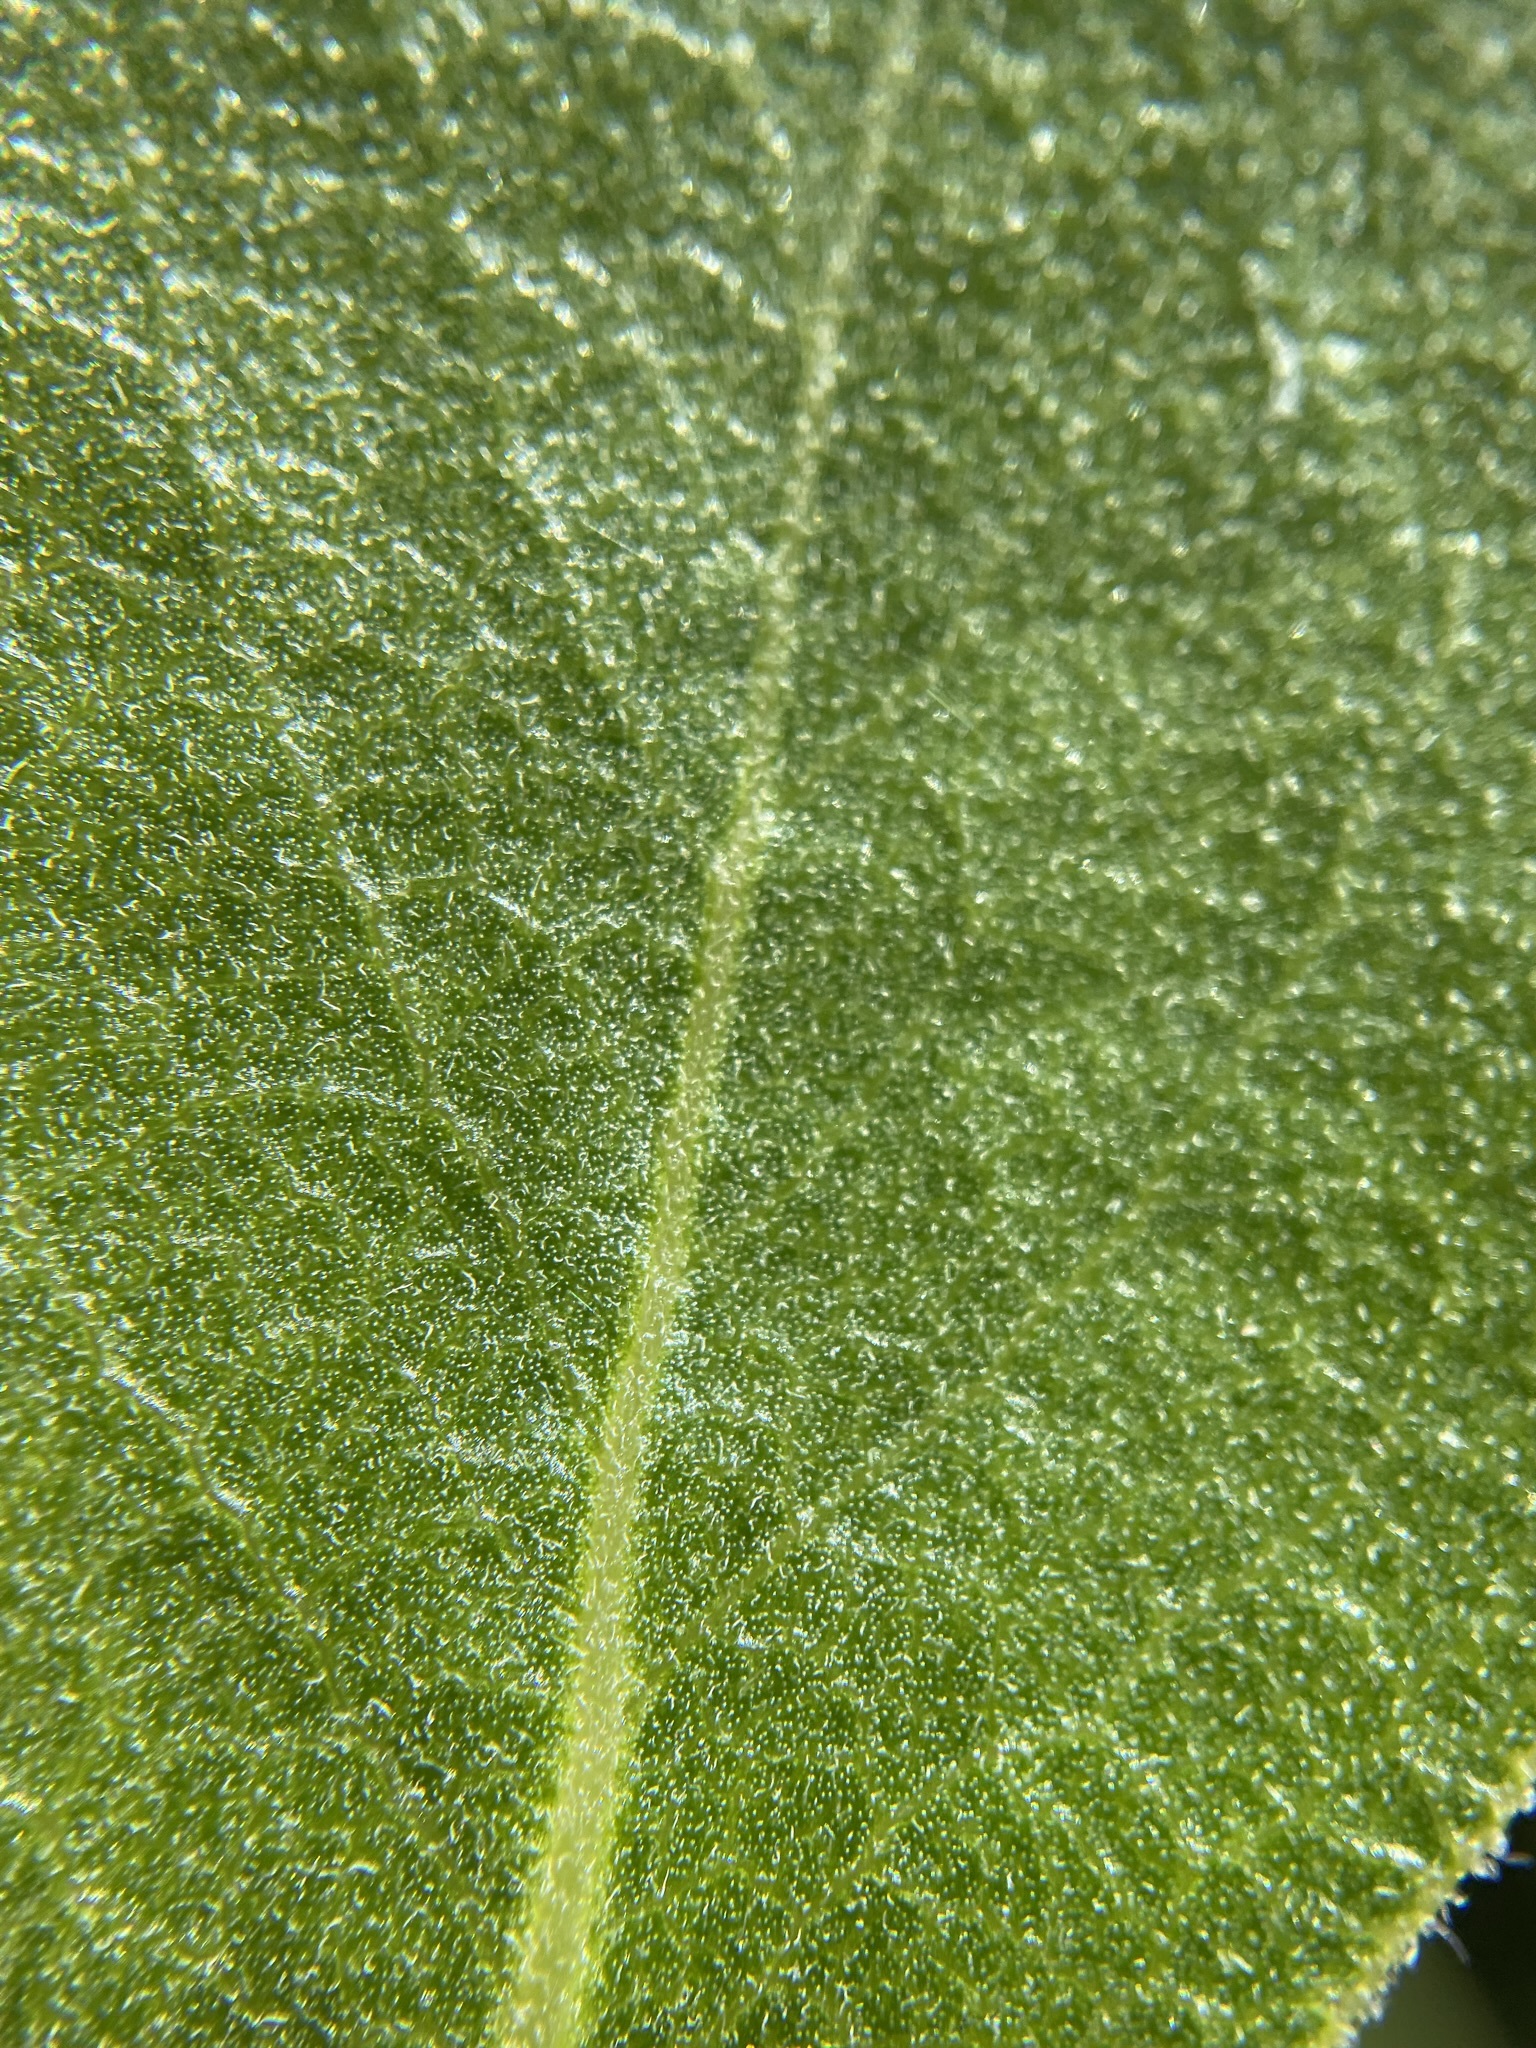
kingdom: Plantae
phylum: Tracheophyta
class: Magnoliopsida
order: Ericales
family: Ericaceae
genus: Arctostaphylos
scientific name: Arctostaphylos manzanita
